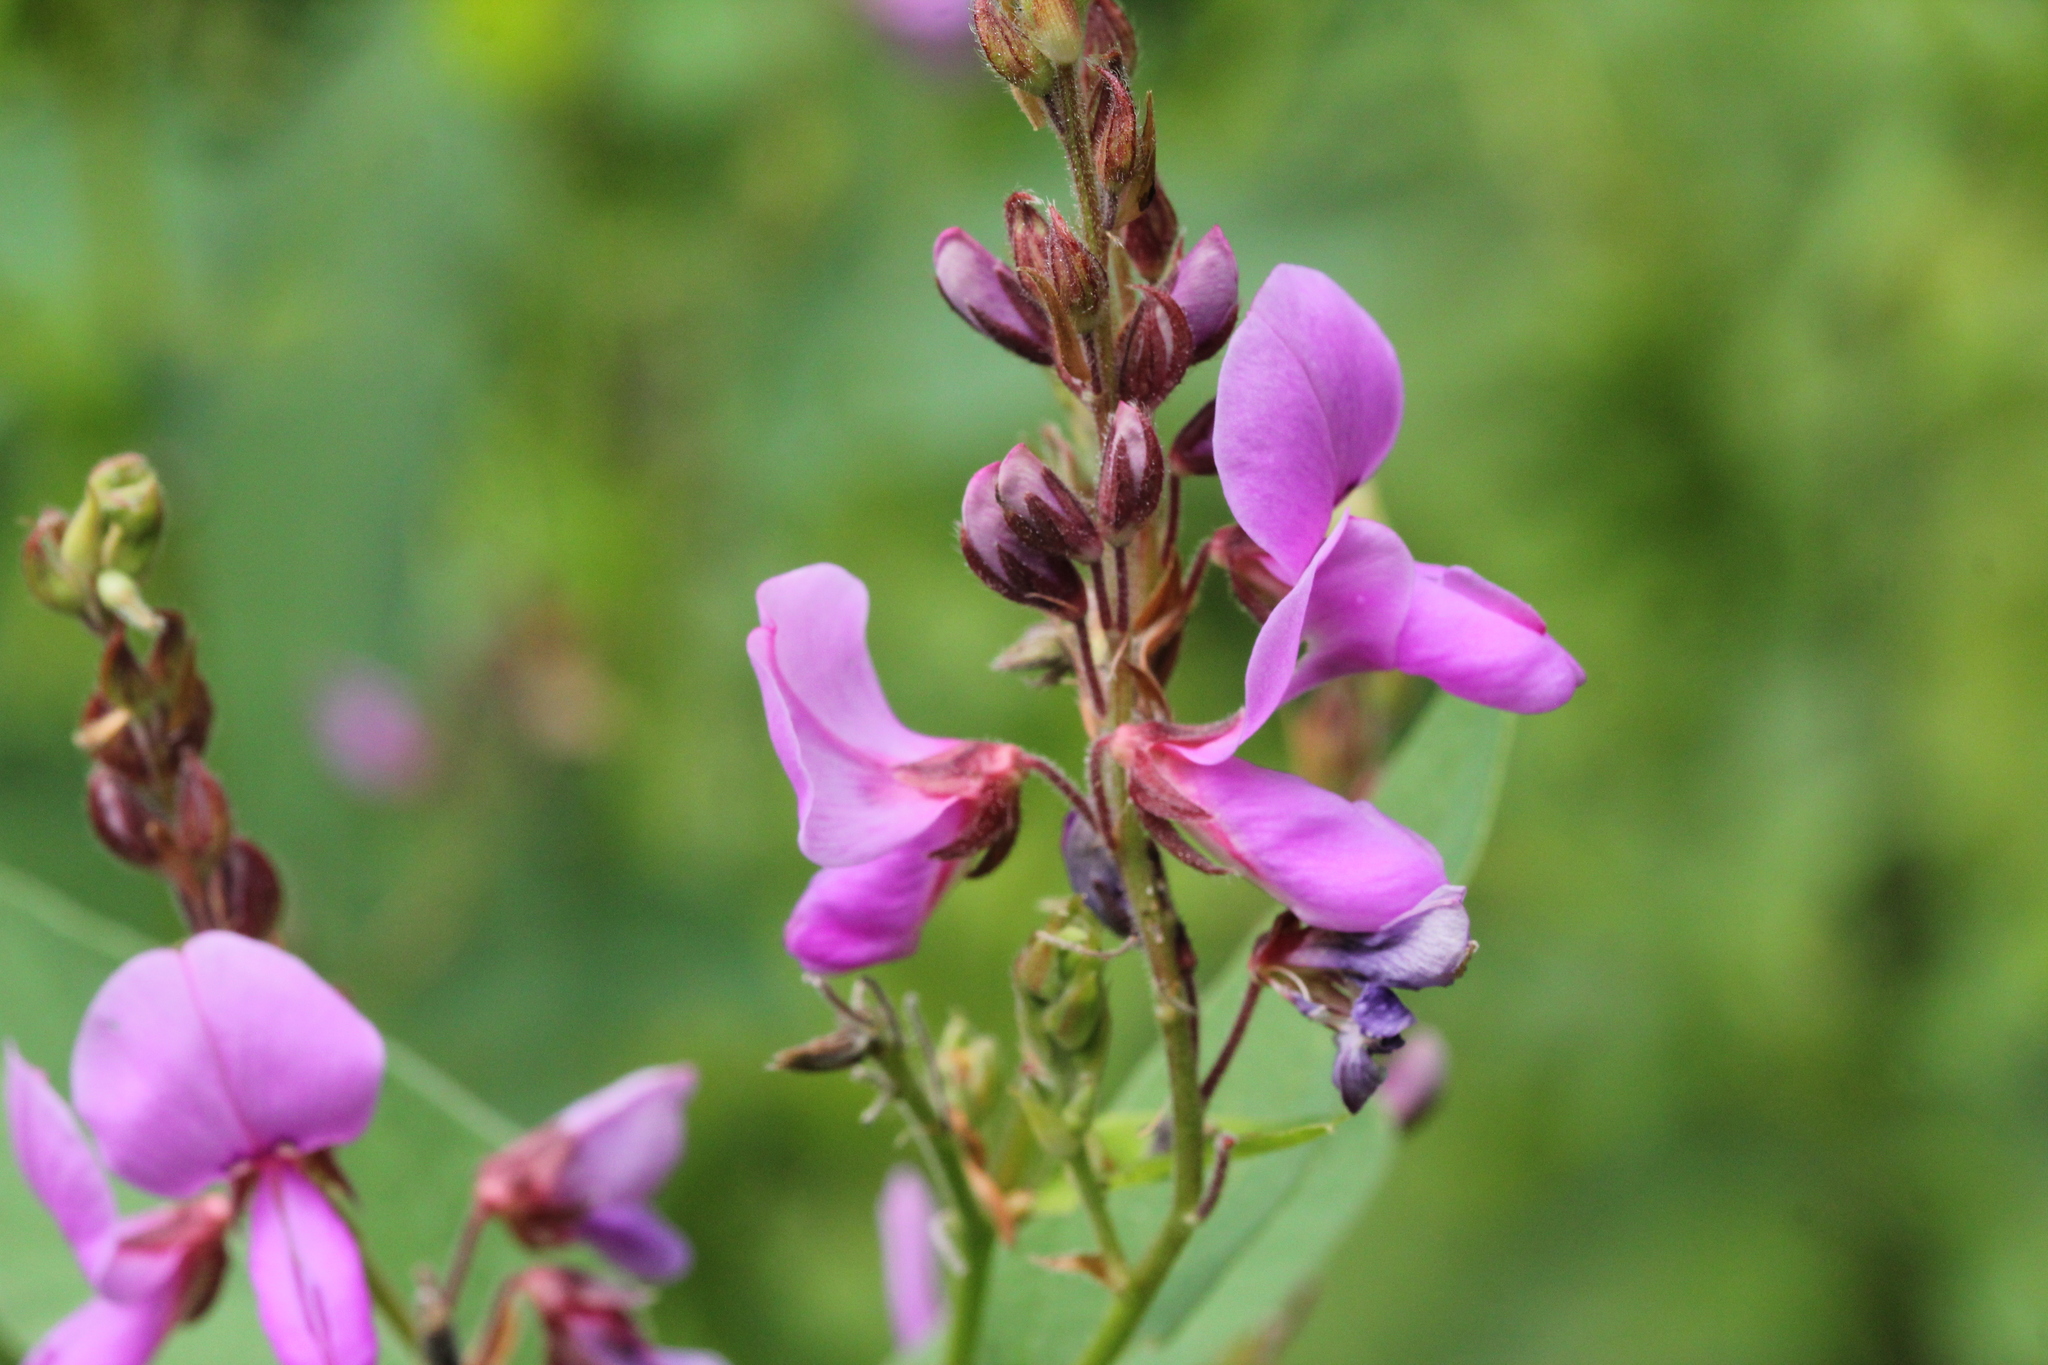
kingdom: Plantae
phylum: Tracheophyta
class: Magnoliopsida
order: Fabales
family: Fabaceae
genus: Desmodium
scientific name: Desmodium canadense
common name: Canada tick-trefoil
